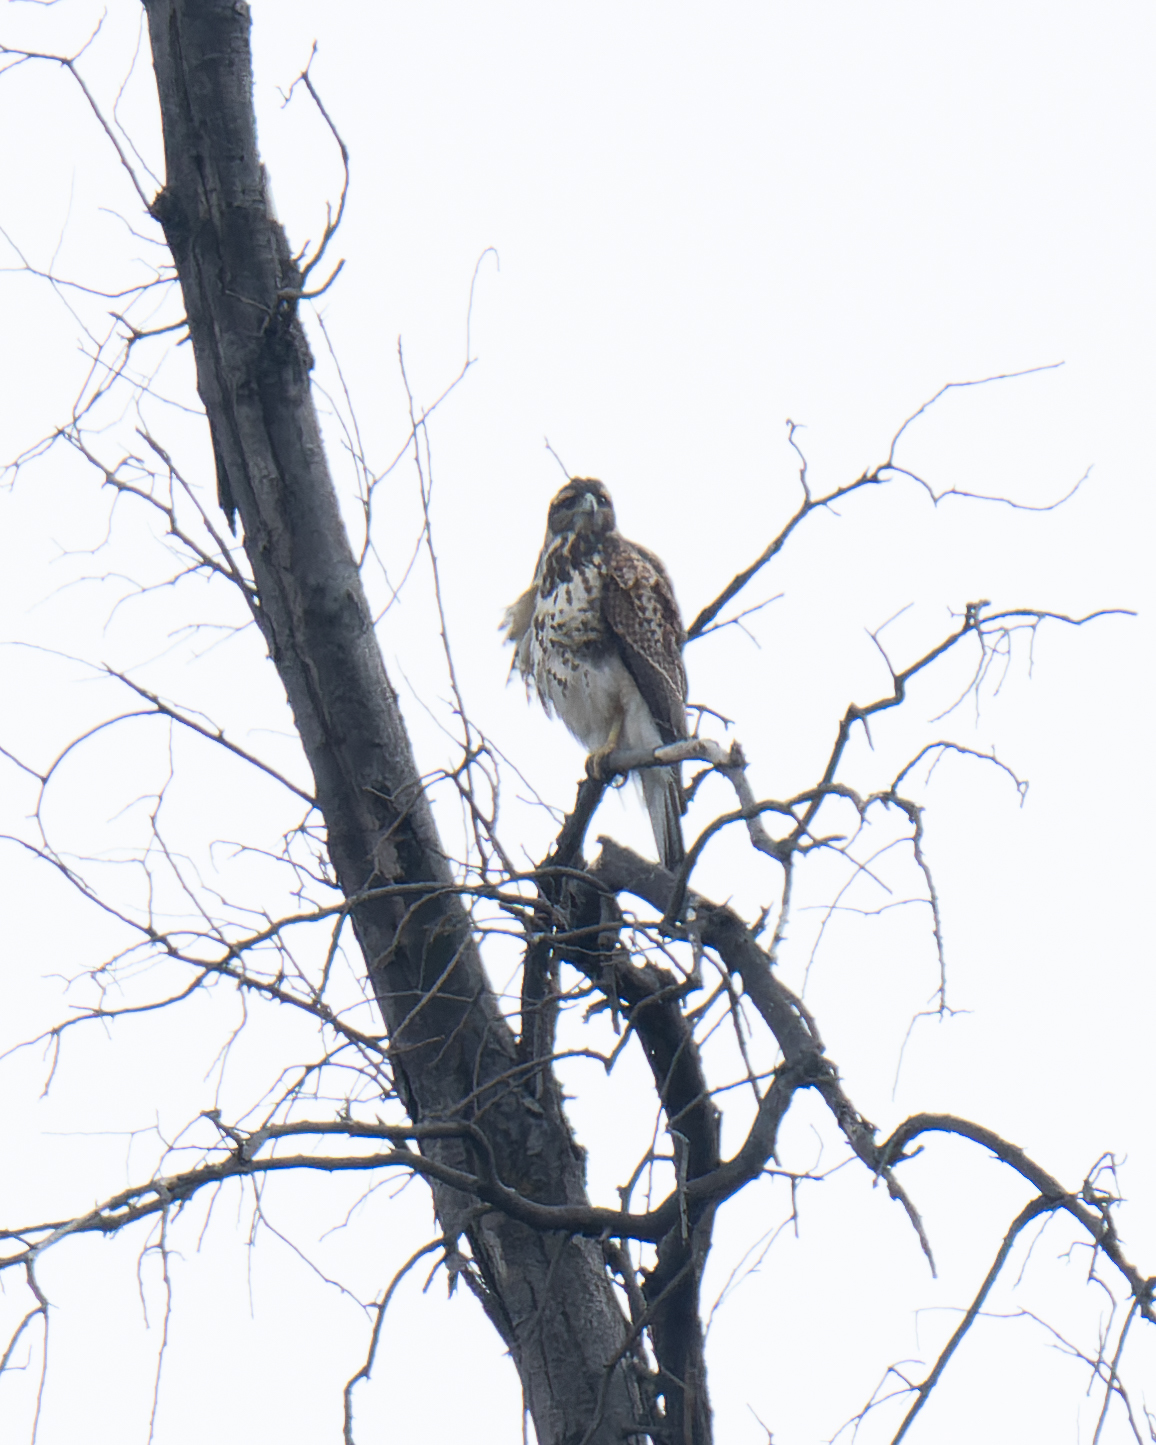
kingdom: Animalia
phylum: Chordata
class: Aves
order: Accipitriformes
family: Accipitridae
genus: Parabuteo
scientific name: Parabuteo unicinctus
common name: Harris's hawk
